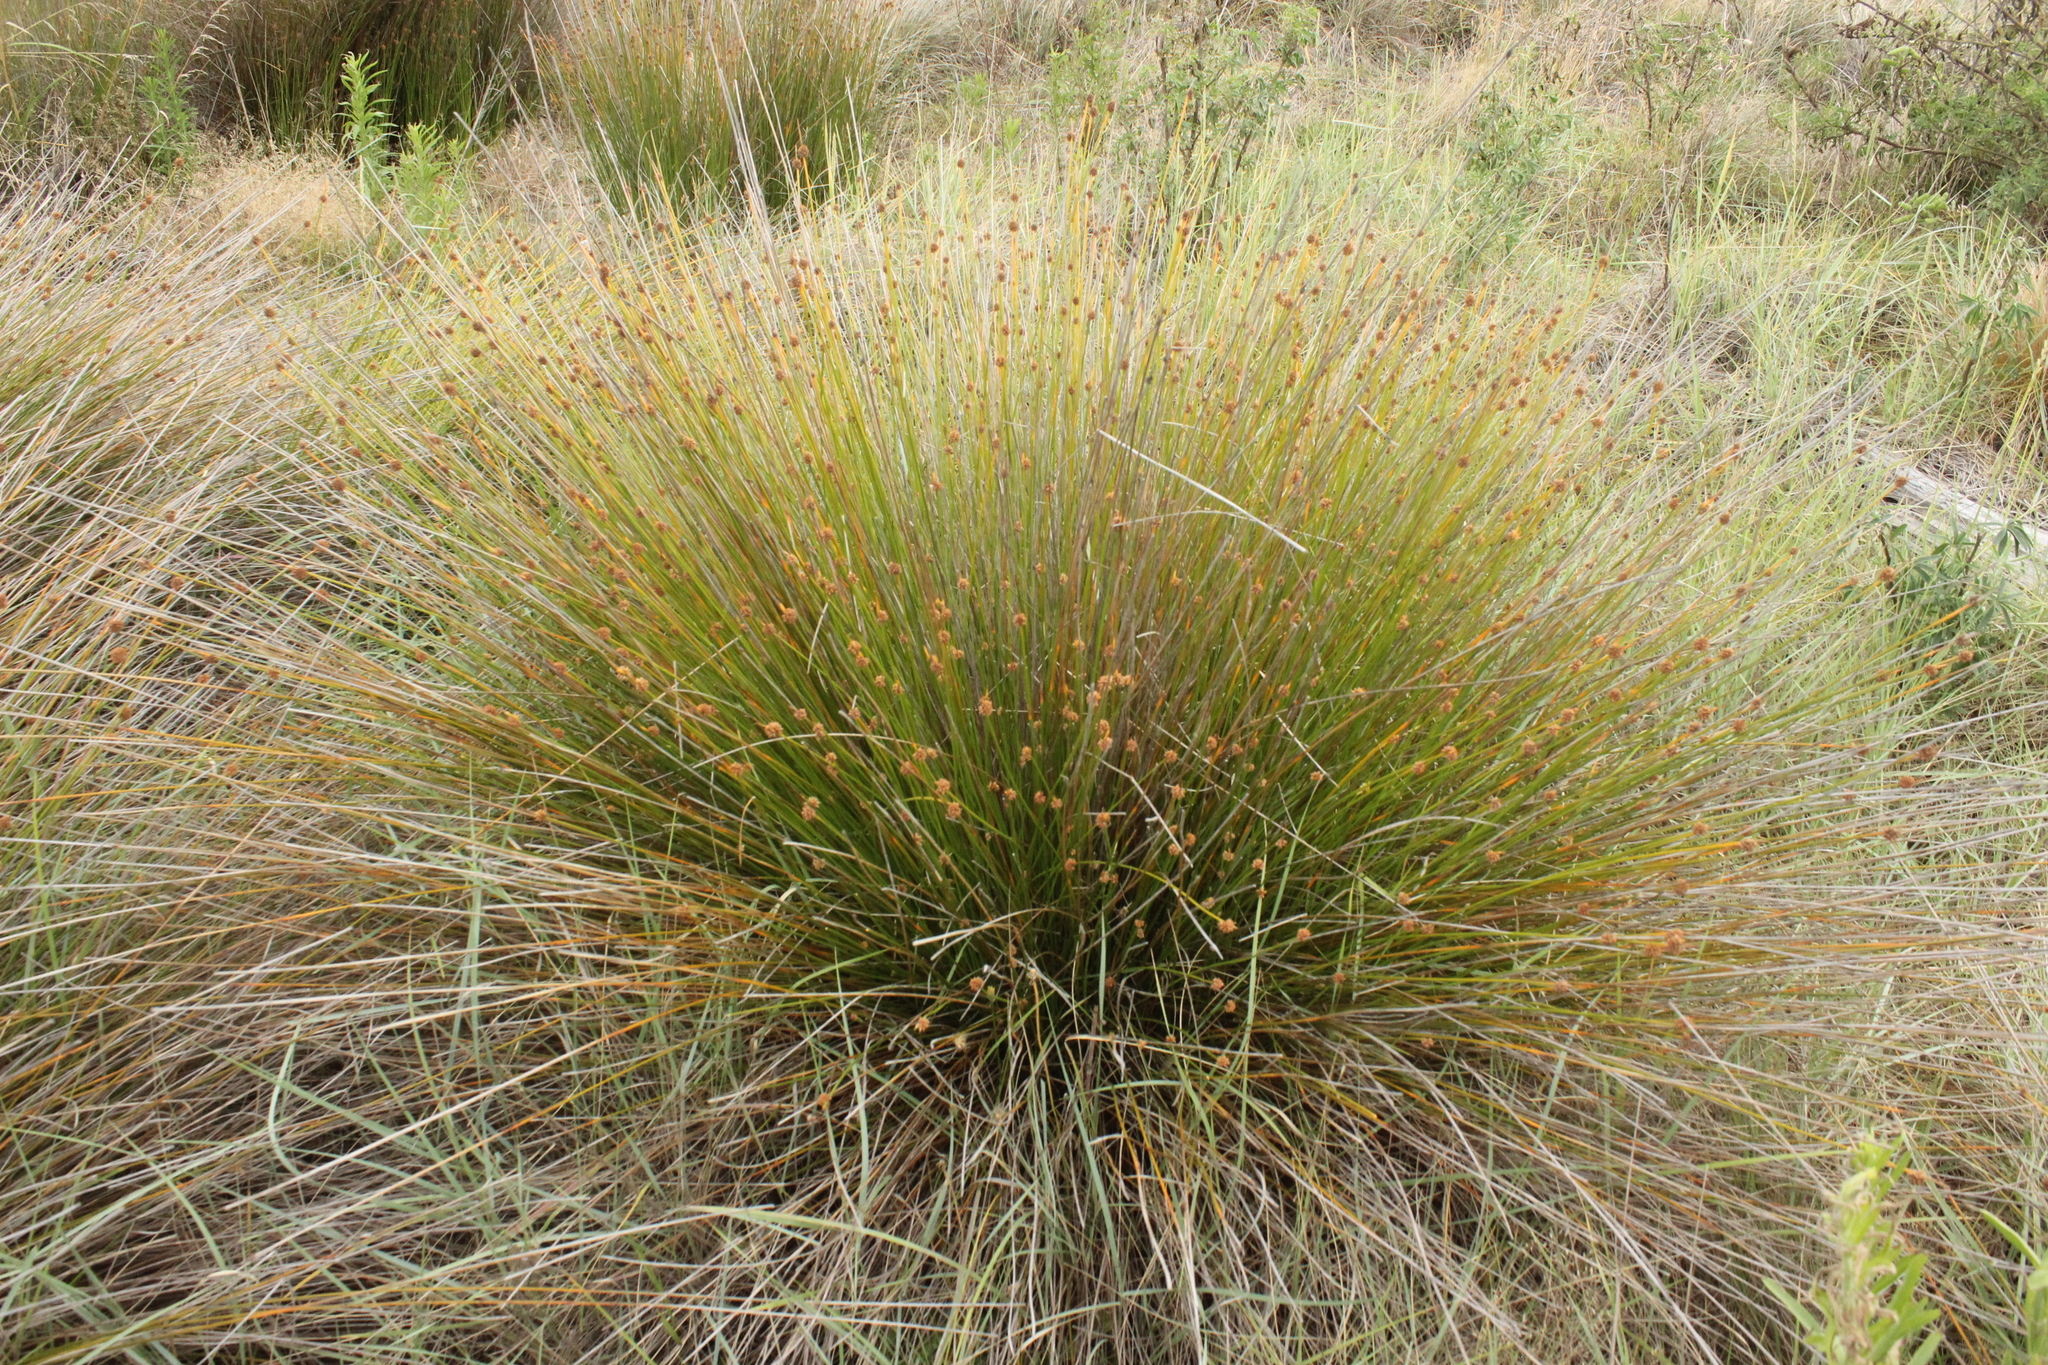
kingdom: Plantae
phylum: Tracheophyta
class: Liliopsida
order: Poales
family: Cyperaceae
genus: Ficinia
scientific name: Ficinia nodosa
